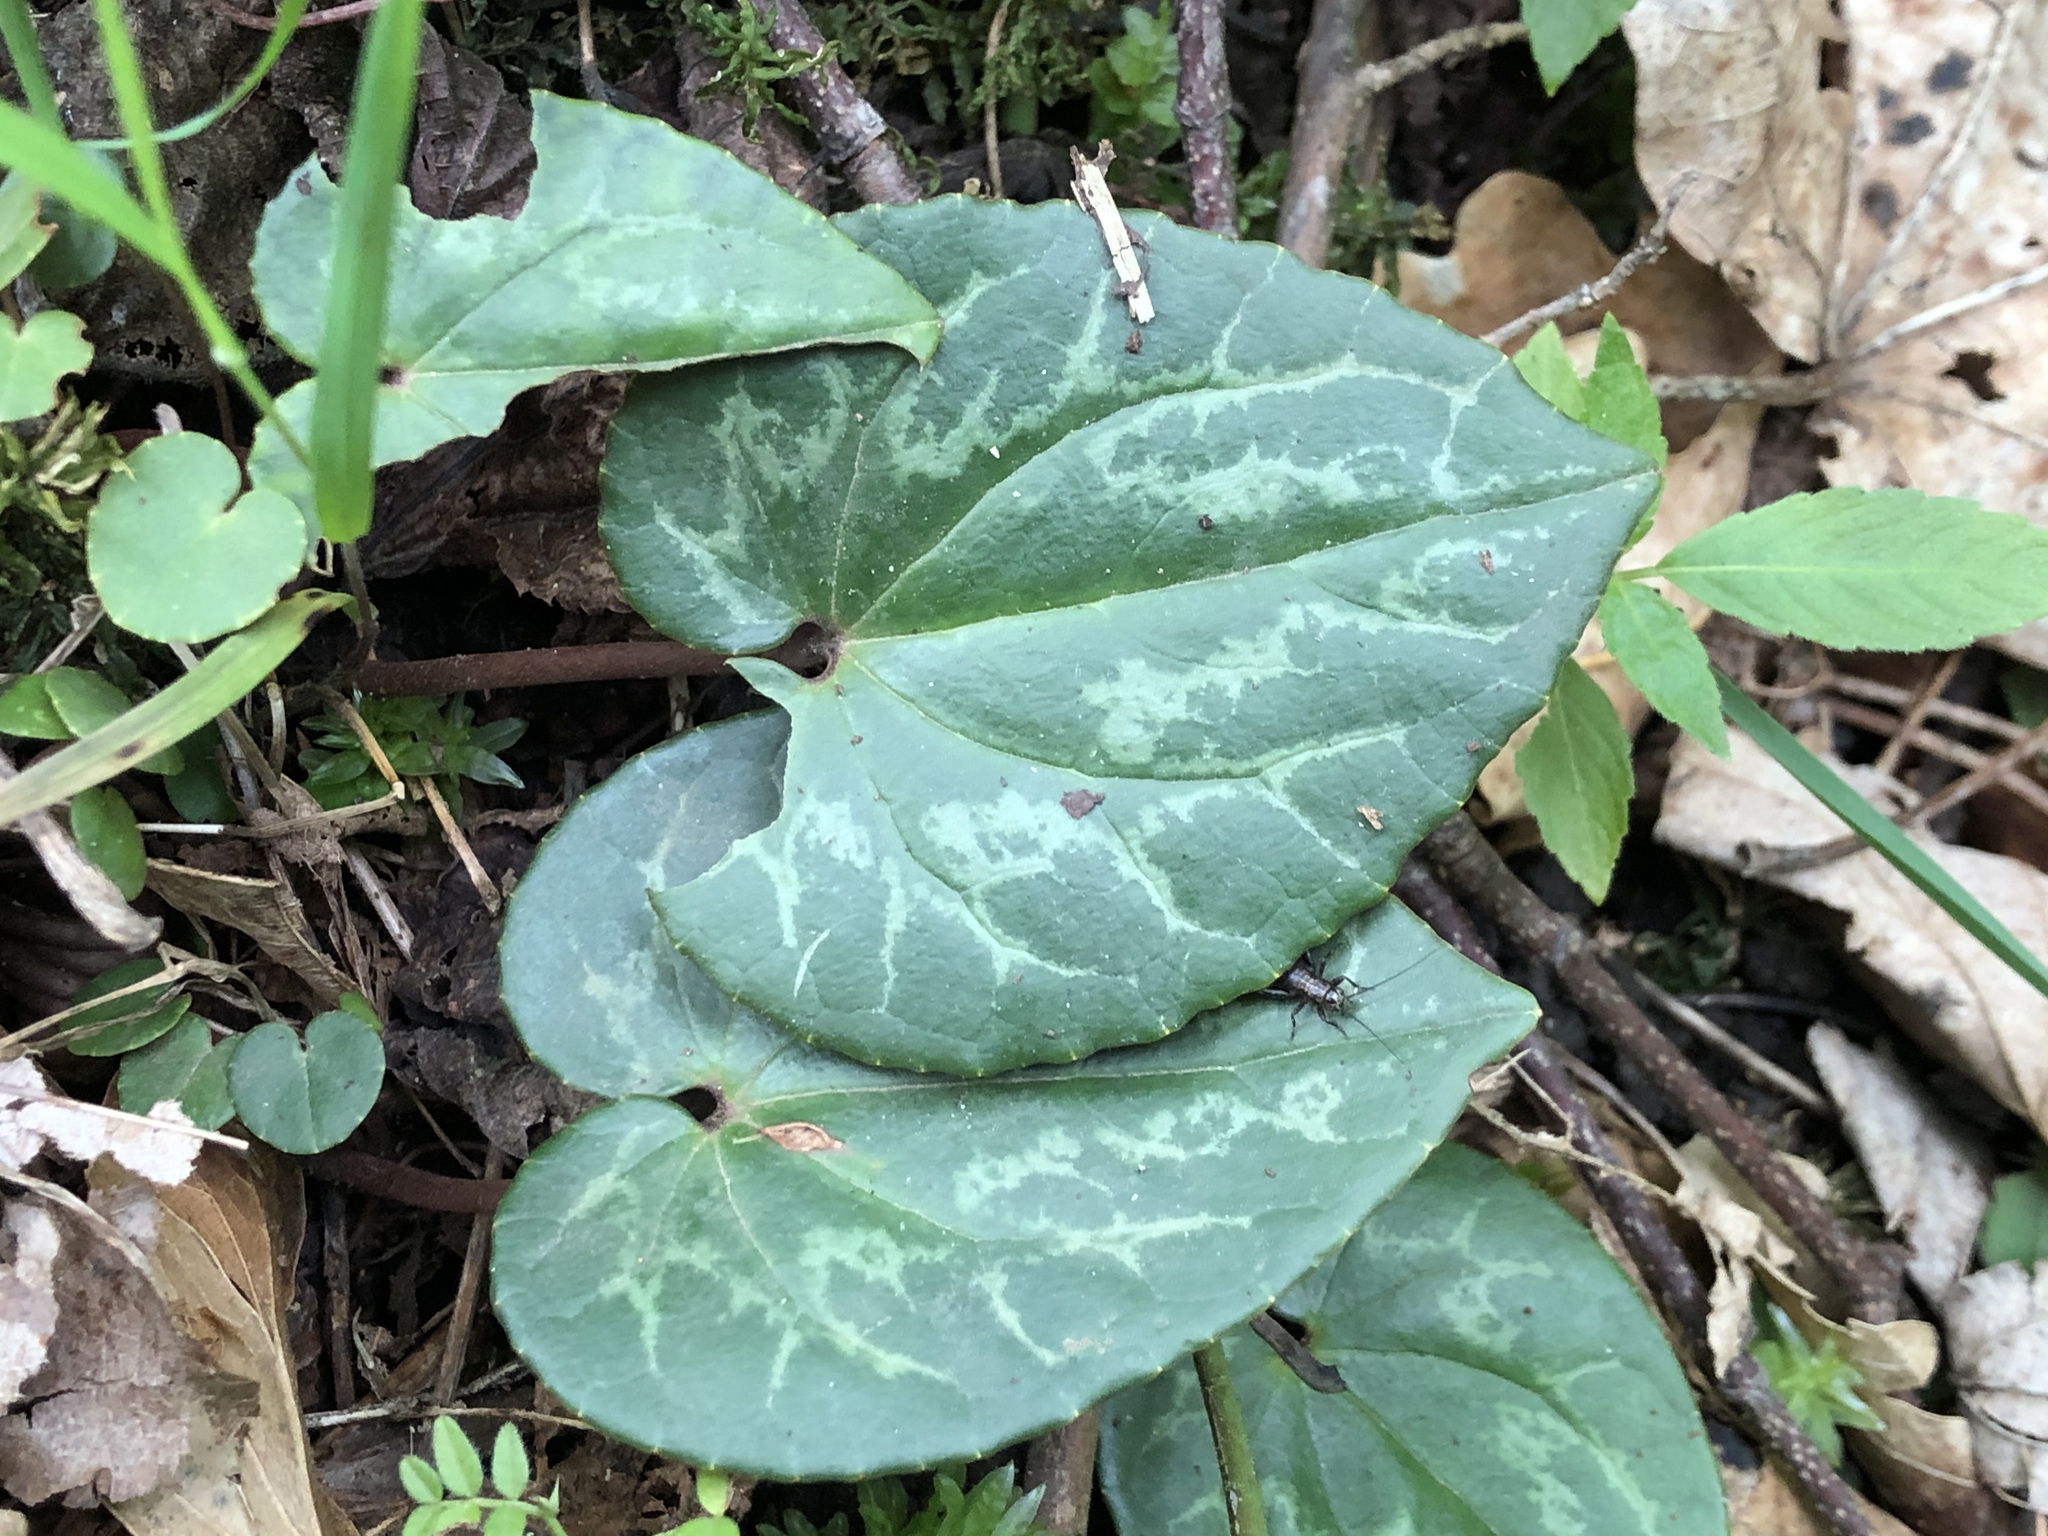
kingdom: Plantae
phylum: Tracheophyta
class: Magnoliopsida
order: Ericales
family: Primulaceae
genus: Cyclamen
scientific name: Cyclamen purpurascens
